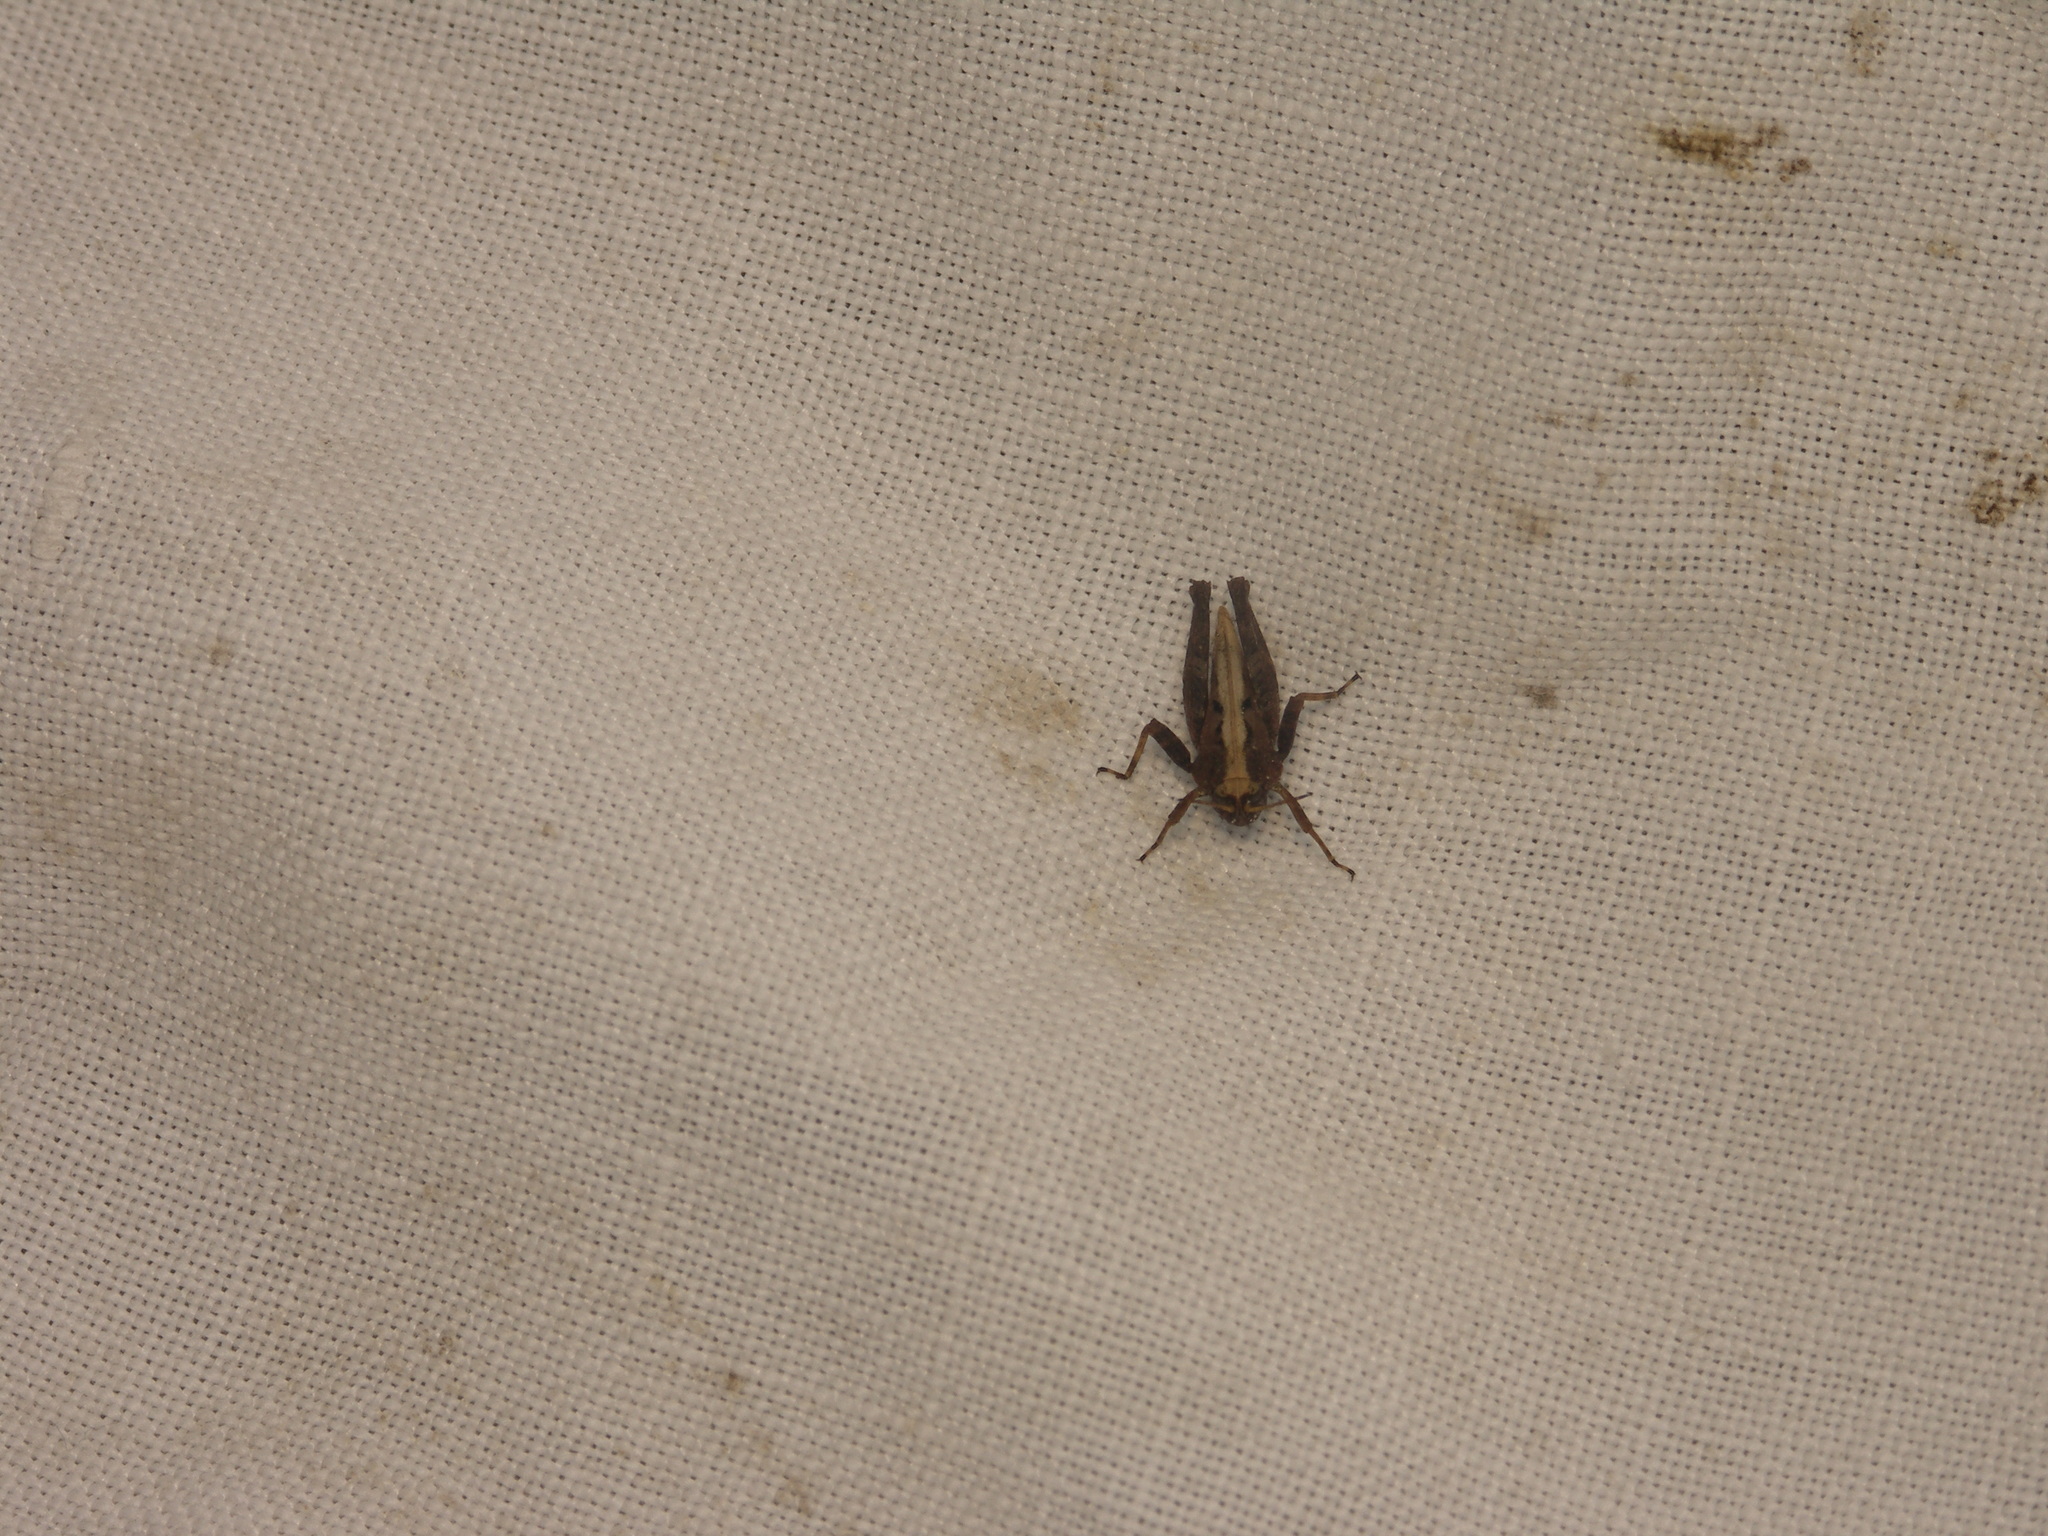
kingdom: Animalia
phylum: Arthropoda
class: Insecta
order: Orthoptera
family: Tetrigidae
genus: Tetrix
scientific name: Tetrix
